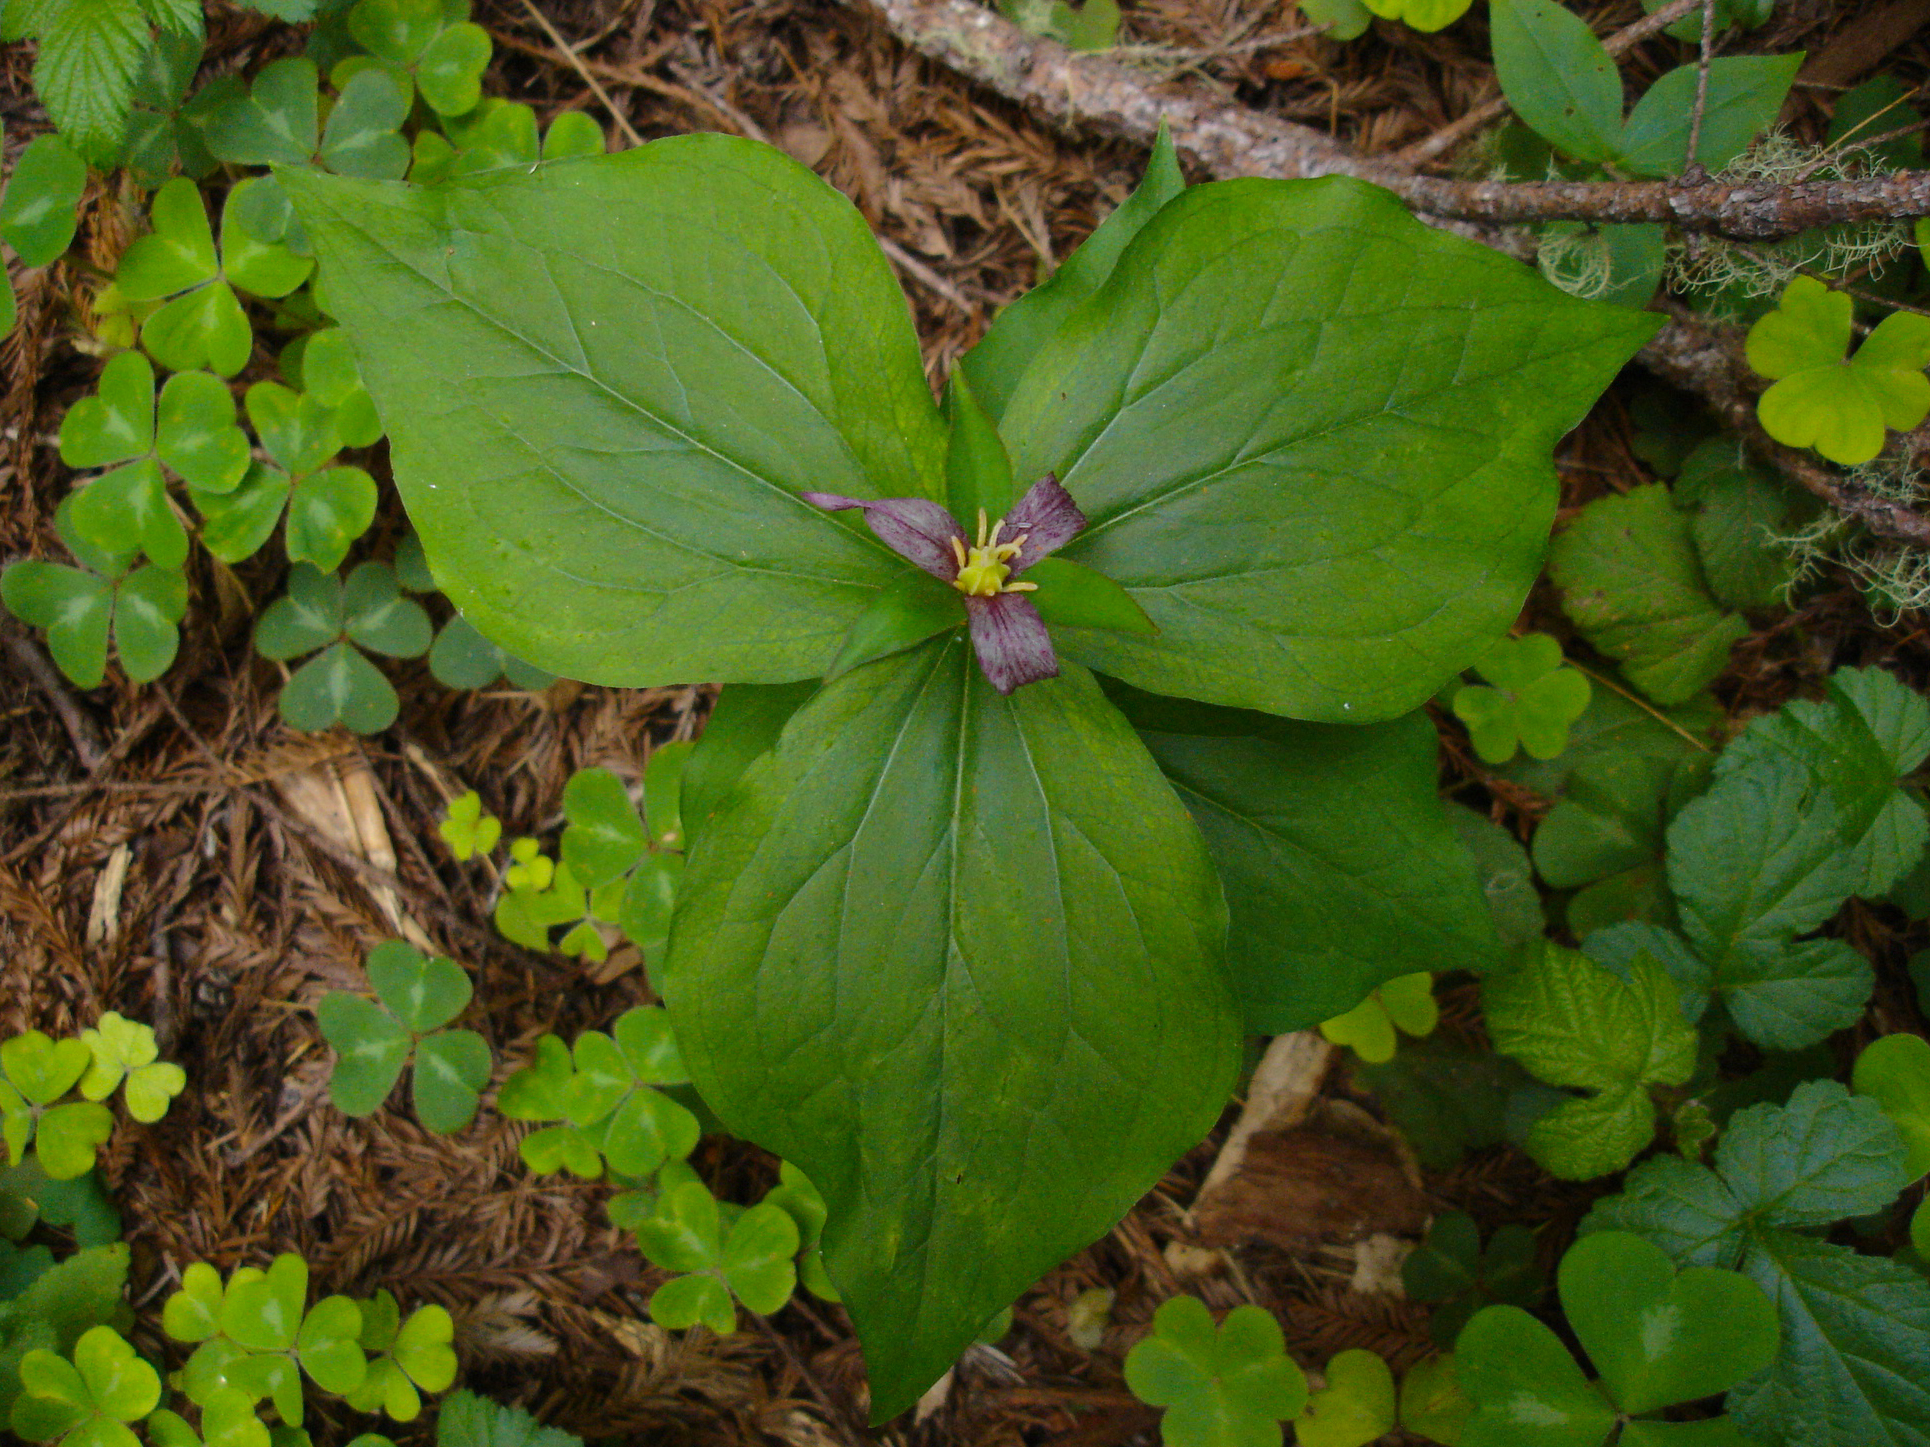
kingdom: Plantae
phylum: Tracheophyta
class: Liliopsida
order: Liliales
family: Melanthiaceae
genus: Trillium
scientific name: Trillium ovatum
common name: Pacific trillium
